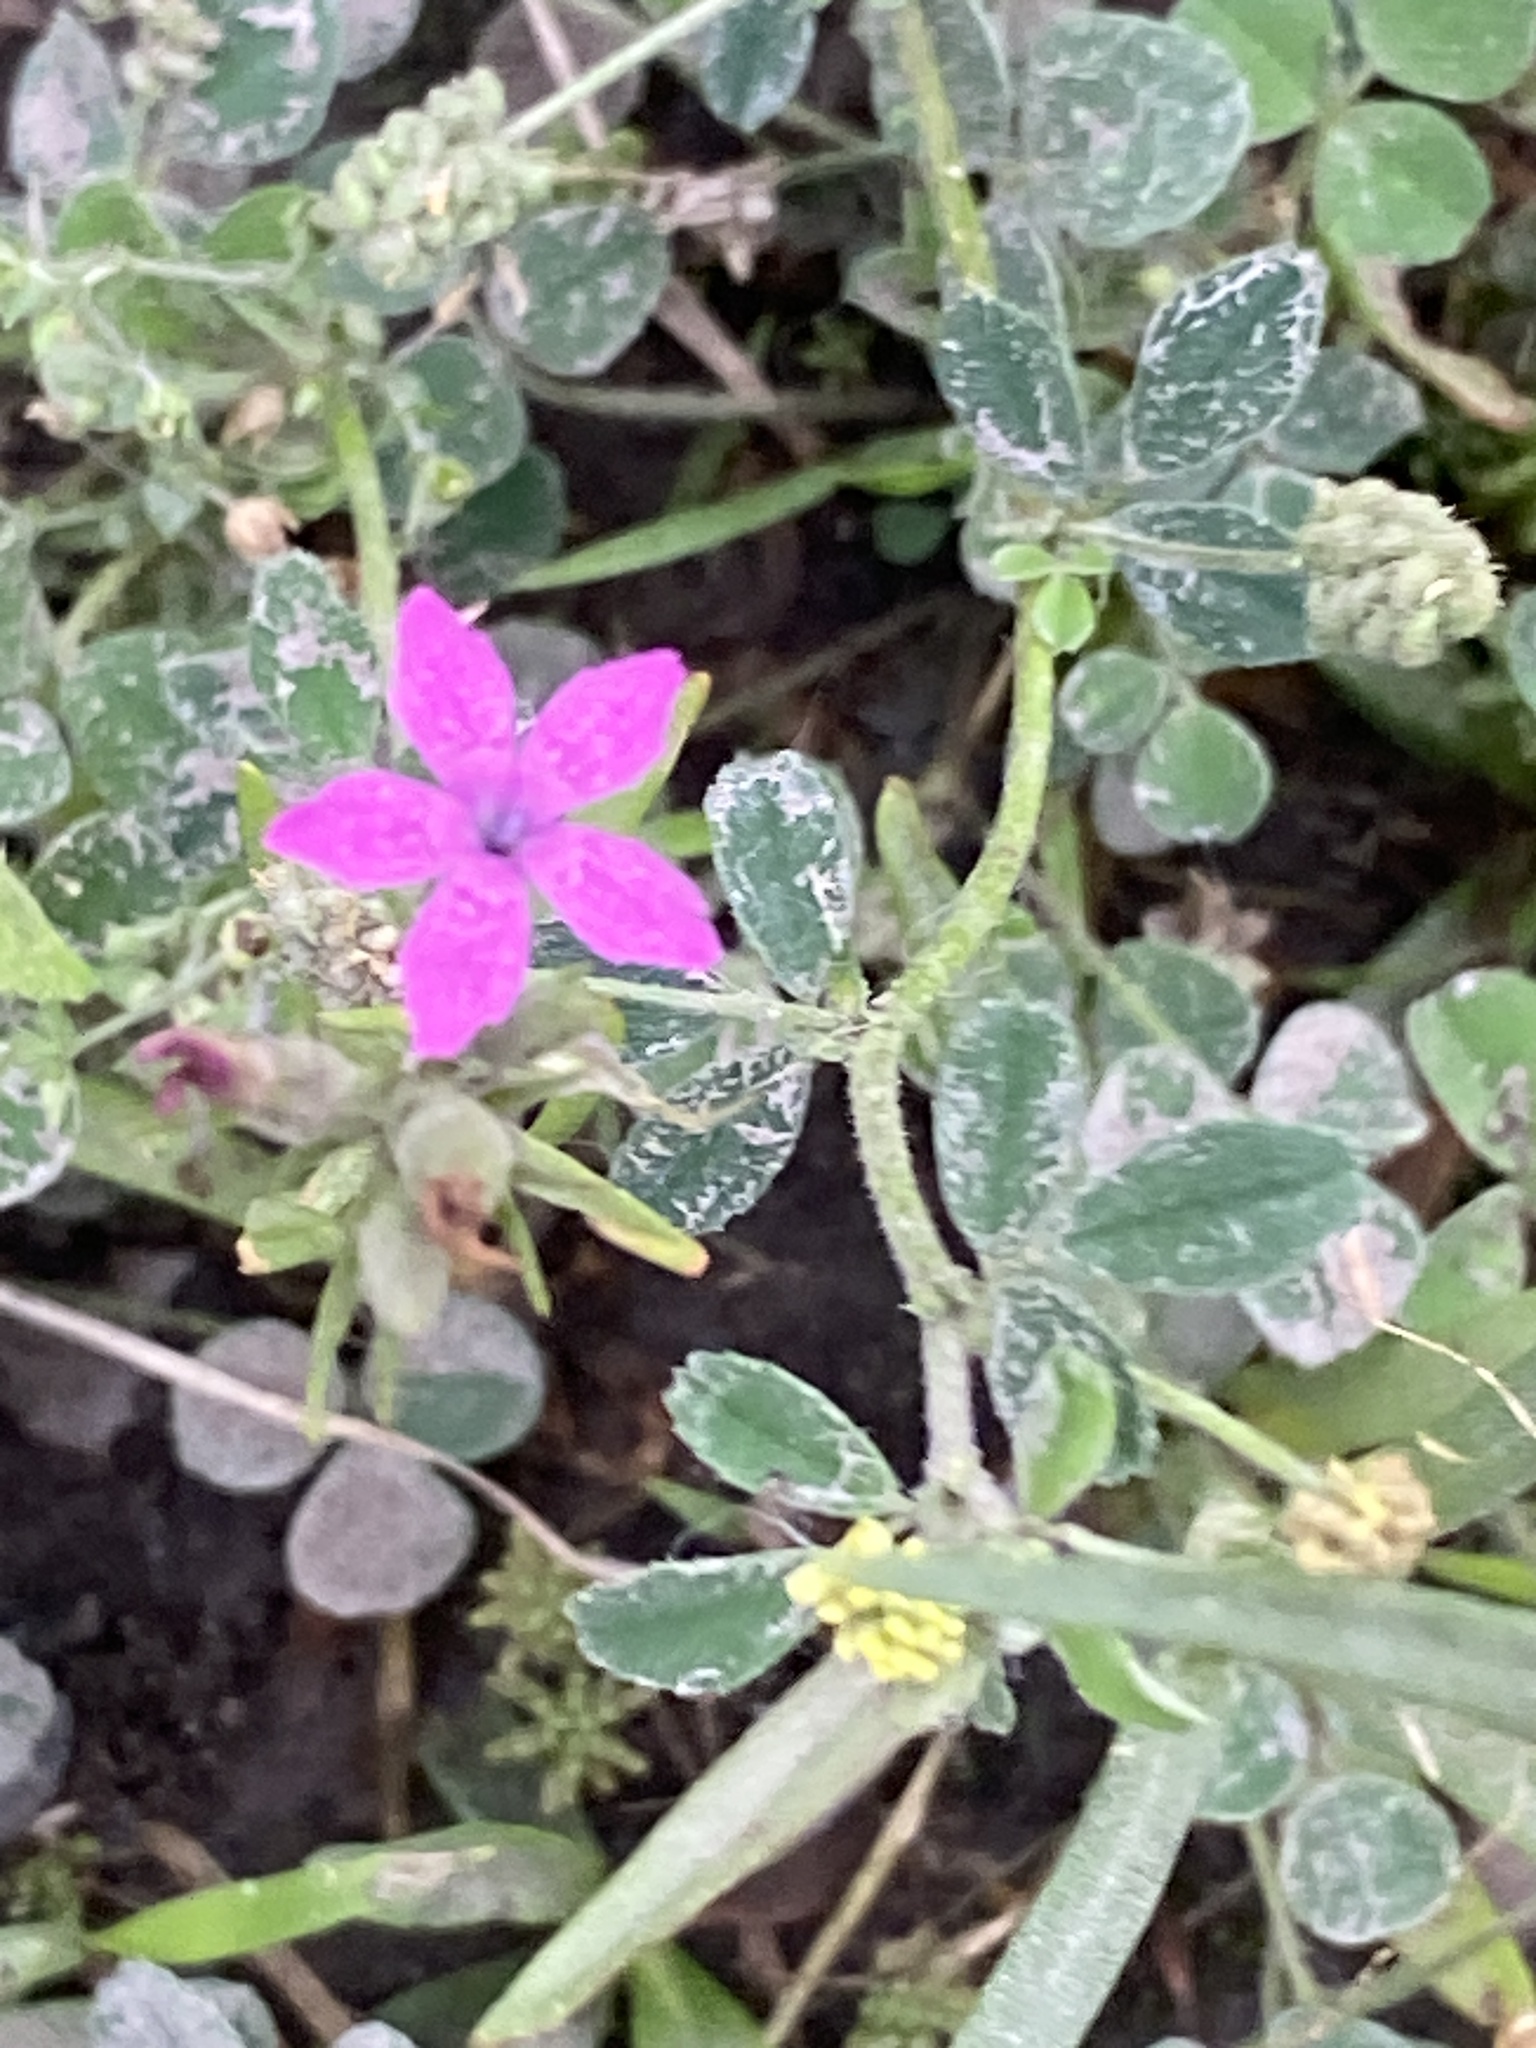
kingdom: Plantae
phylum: Tracheophyta
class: Magnoliopsida
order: Caryophyllales
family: Caryophyllaceae
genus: Dianthus
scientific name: Dianthus armeria
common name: Deptford pink
